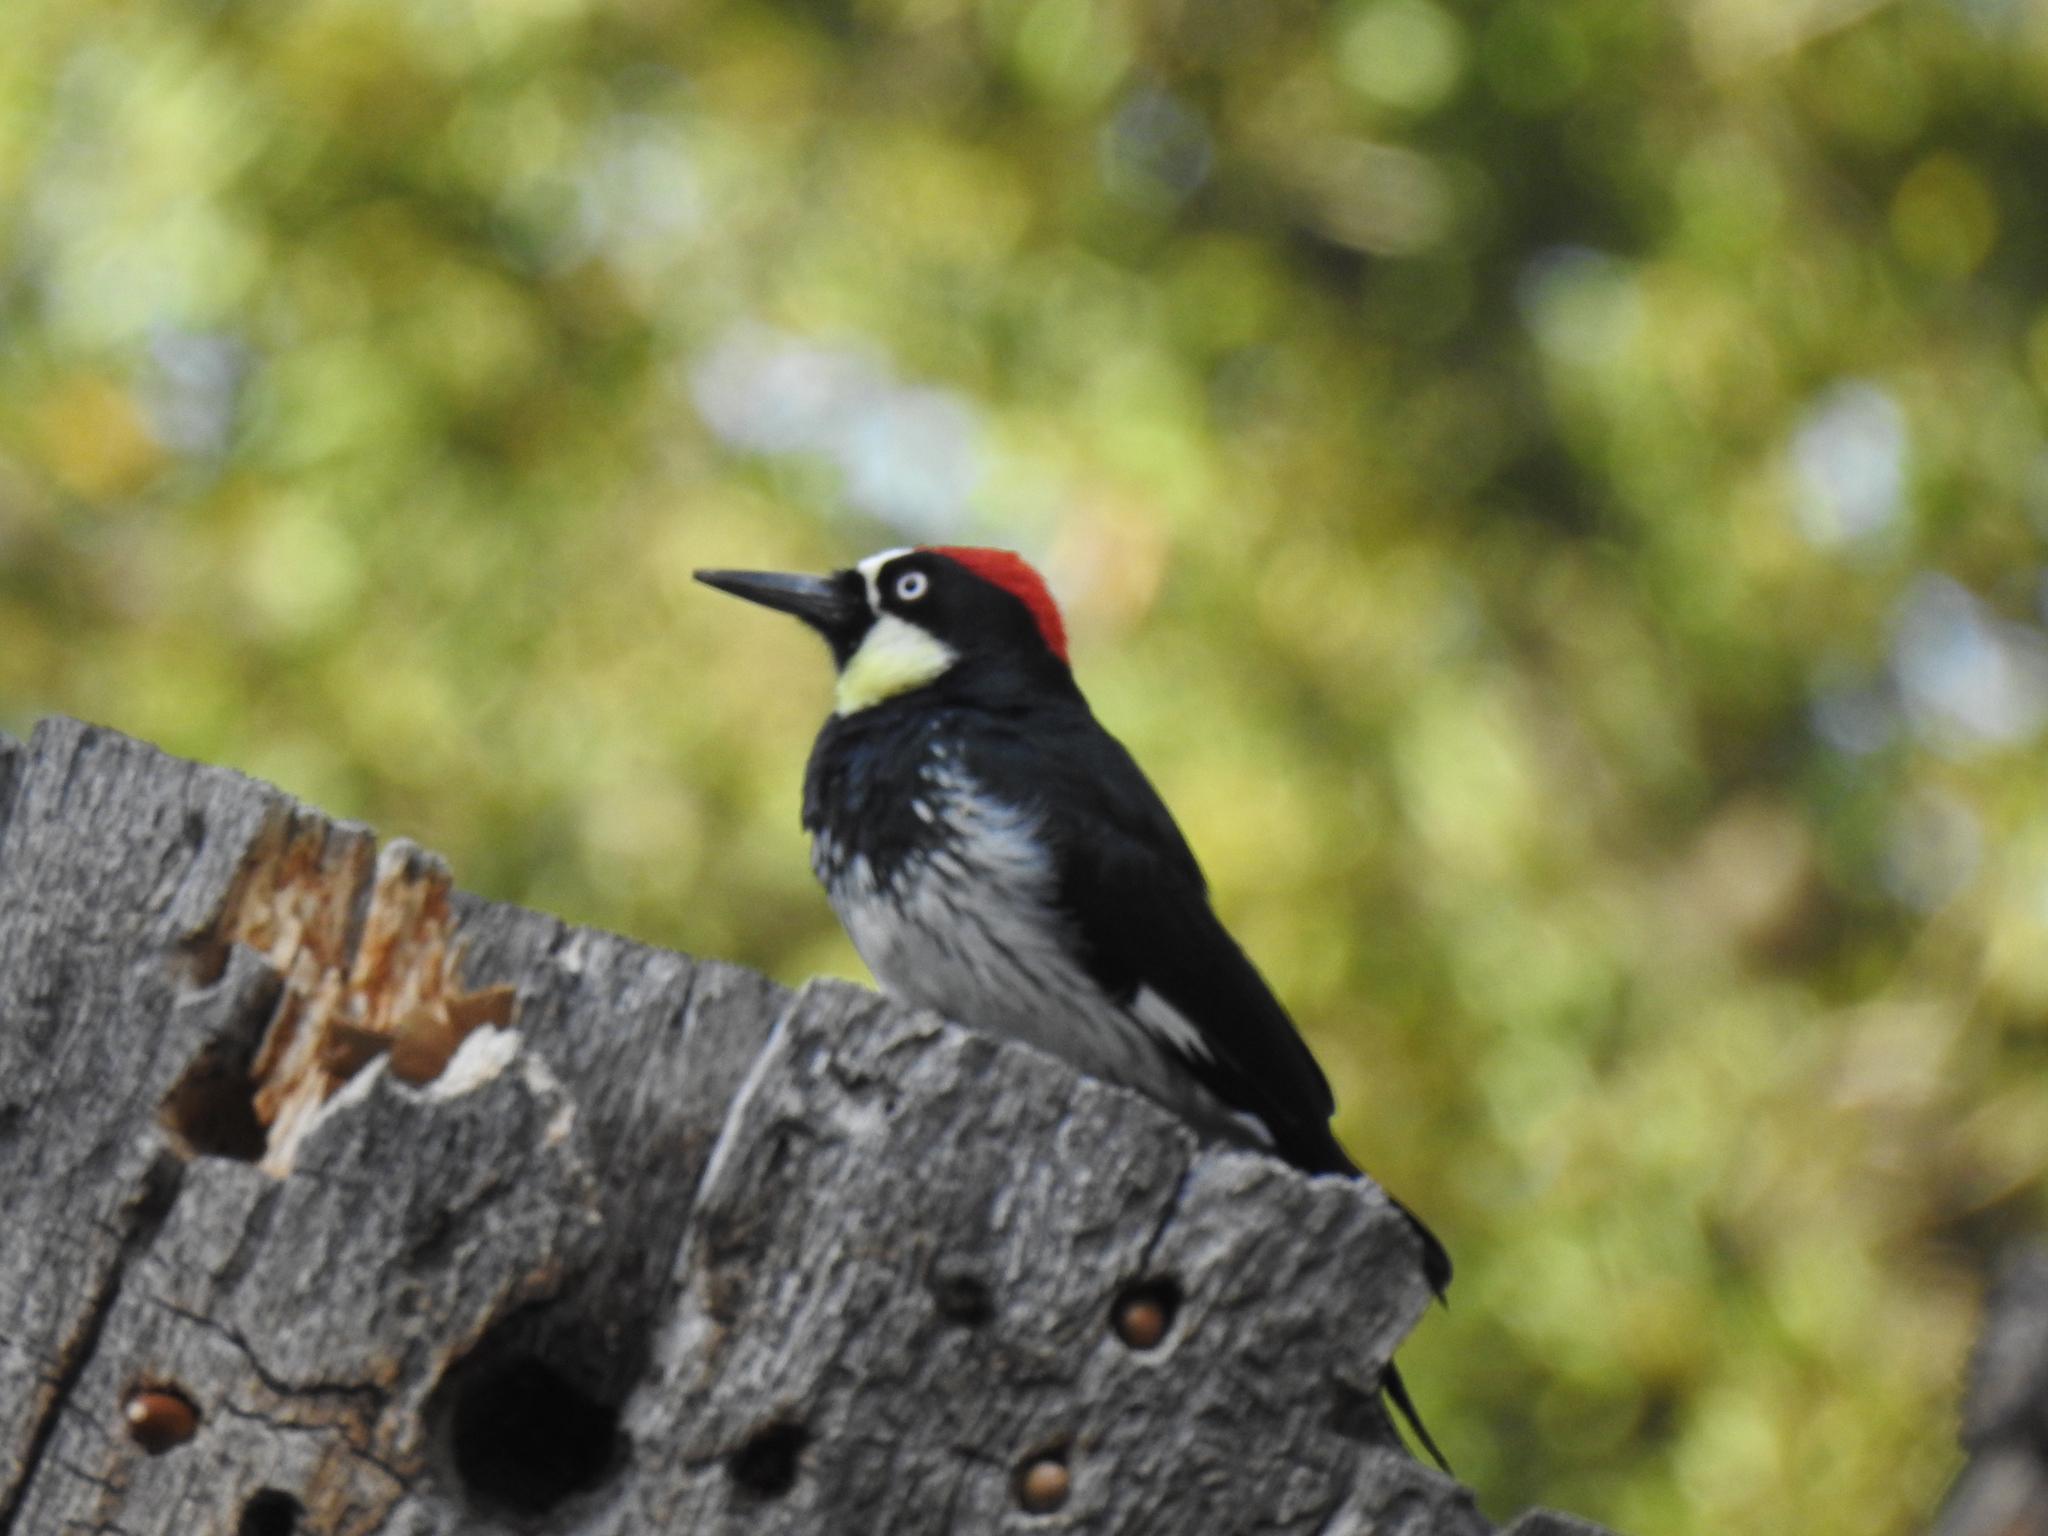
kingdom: Animalia
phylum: Chordata
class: Aves
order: Piciformes
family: Picidae
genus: Melanerpes
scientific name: Melanerpes formicivorus
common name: Acorn woodpecker
